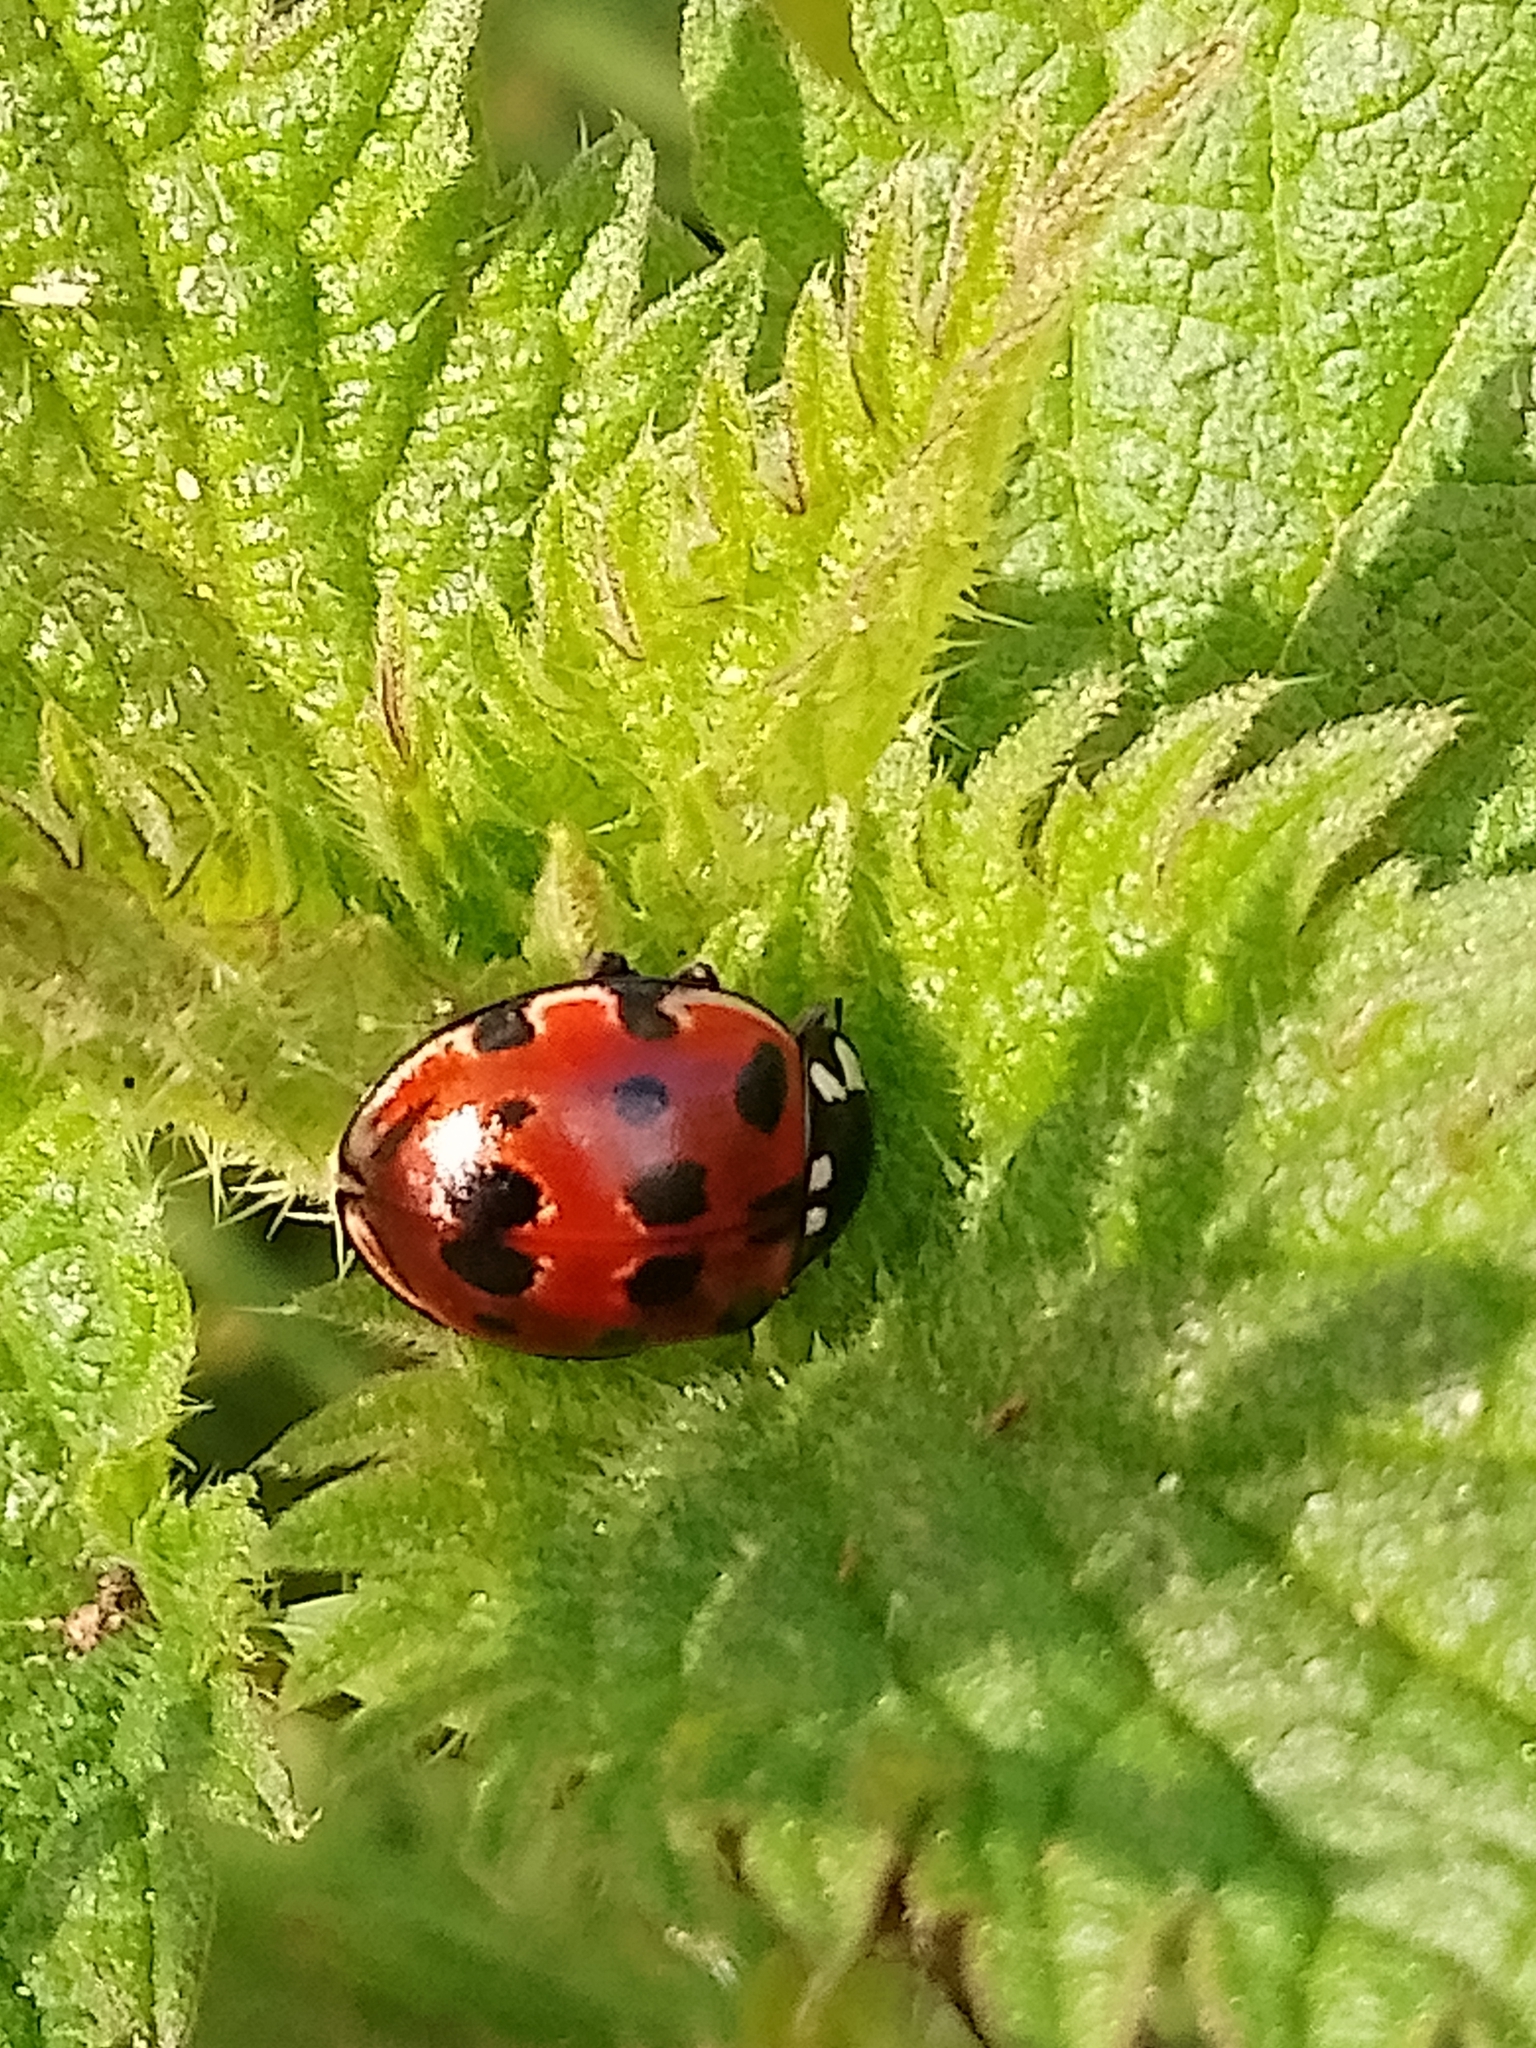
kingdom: Animalia
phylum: Arthropoda
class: Insecta
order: Coleoptera
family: Coccinellidae
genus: Anatis
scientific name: Anatis ocellata
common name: Eyed ladybird
